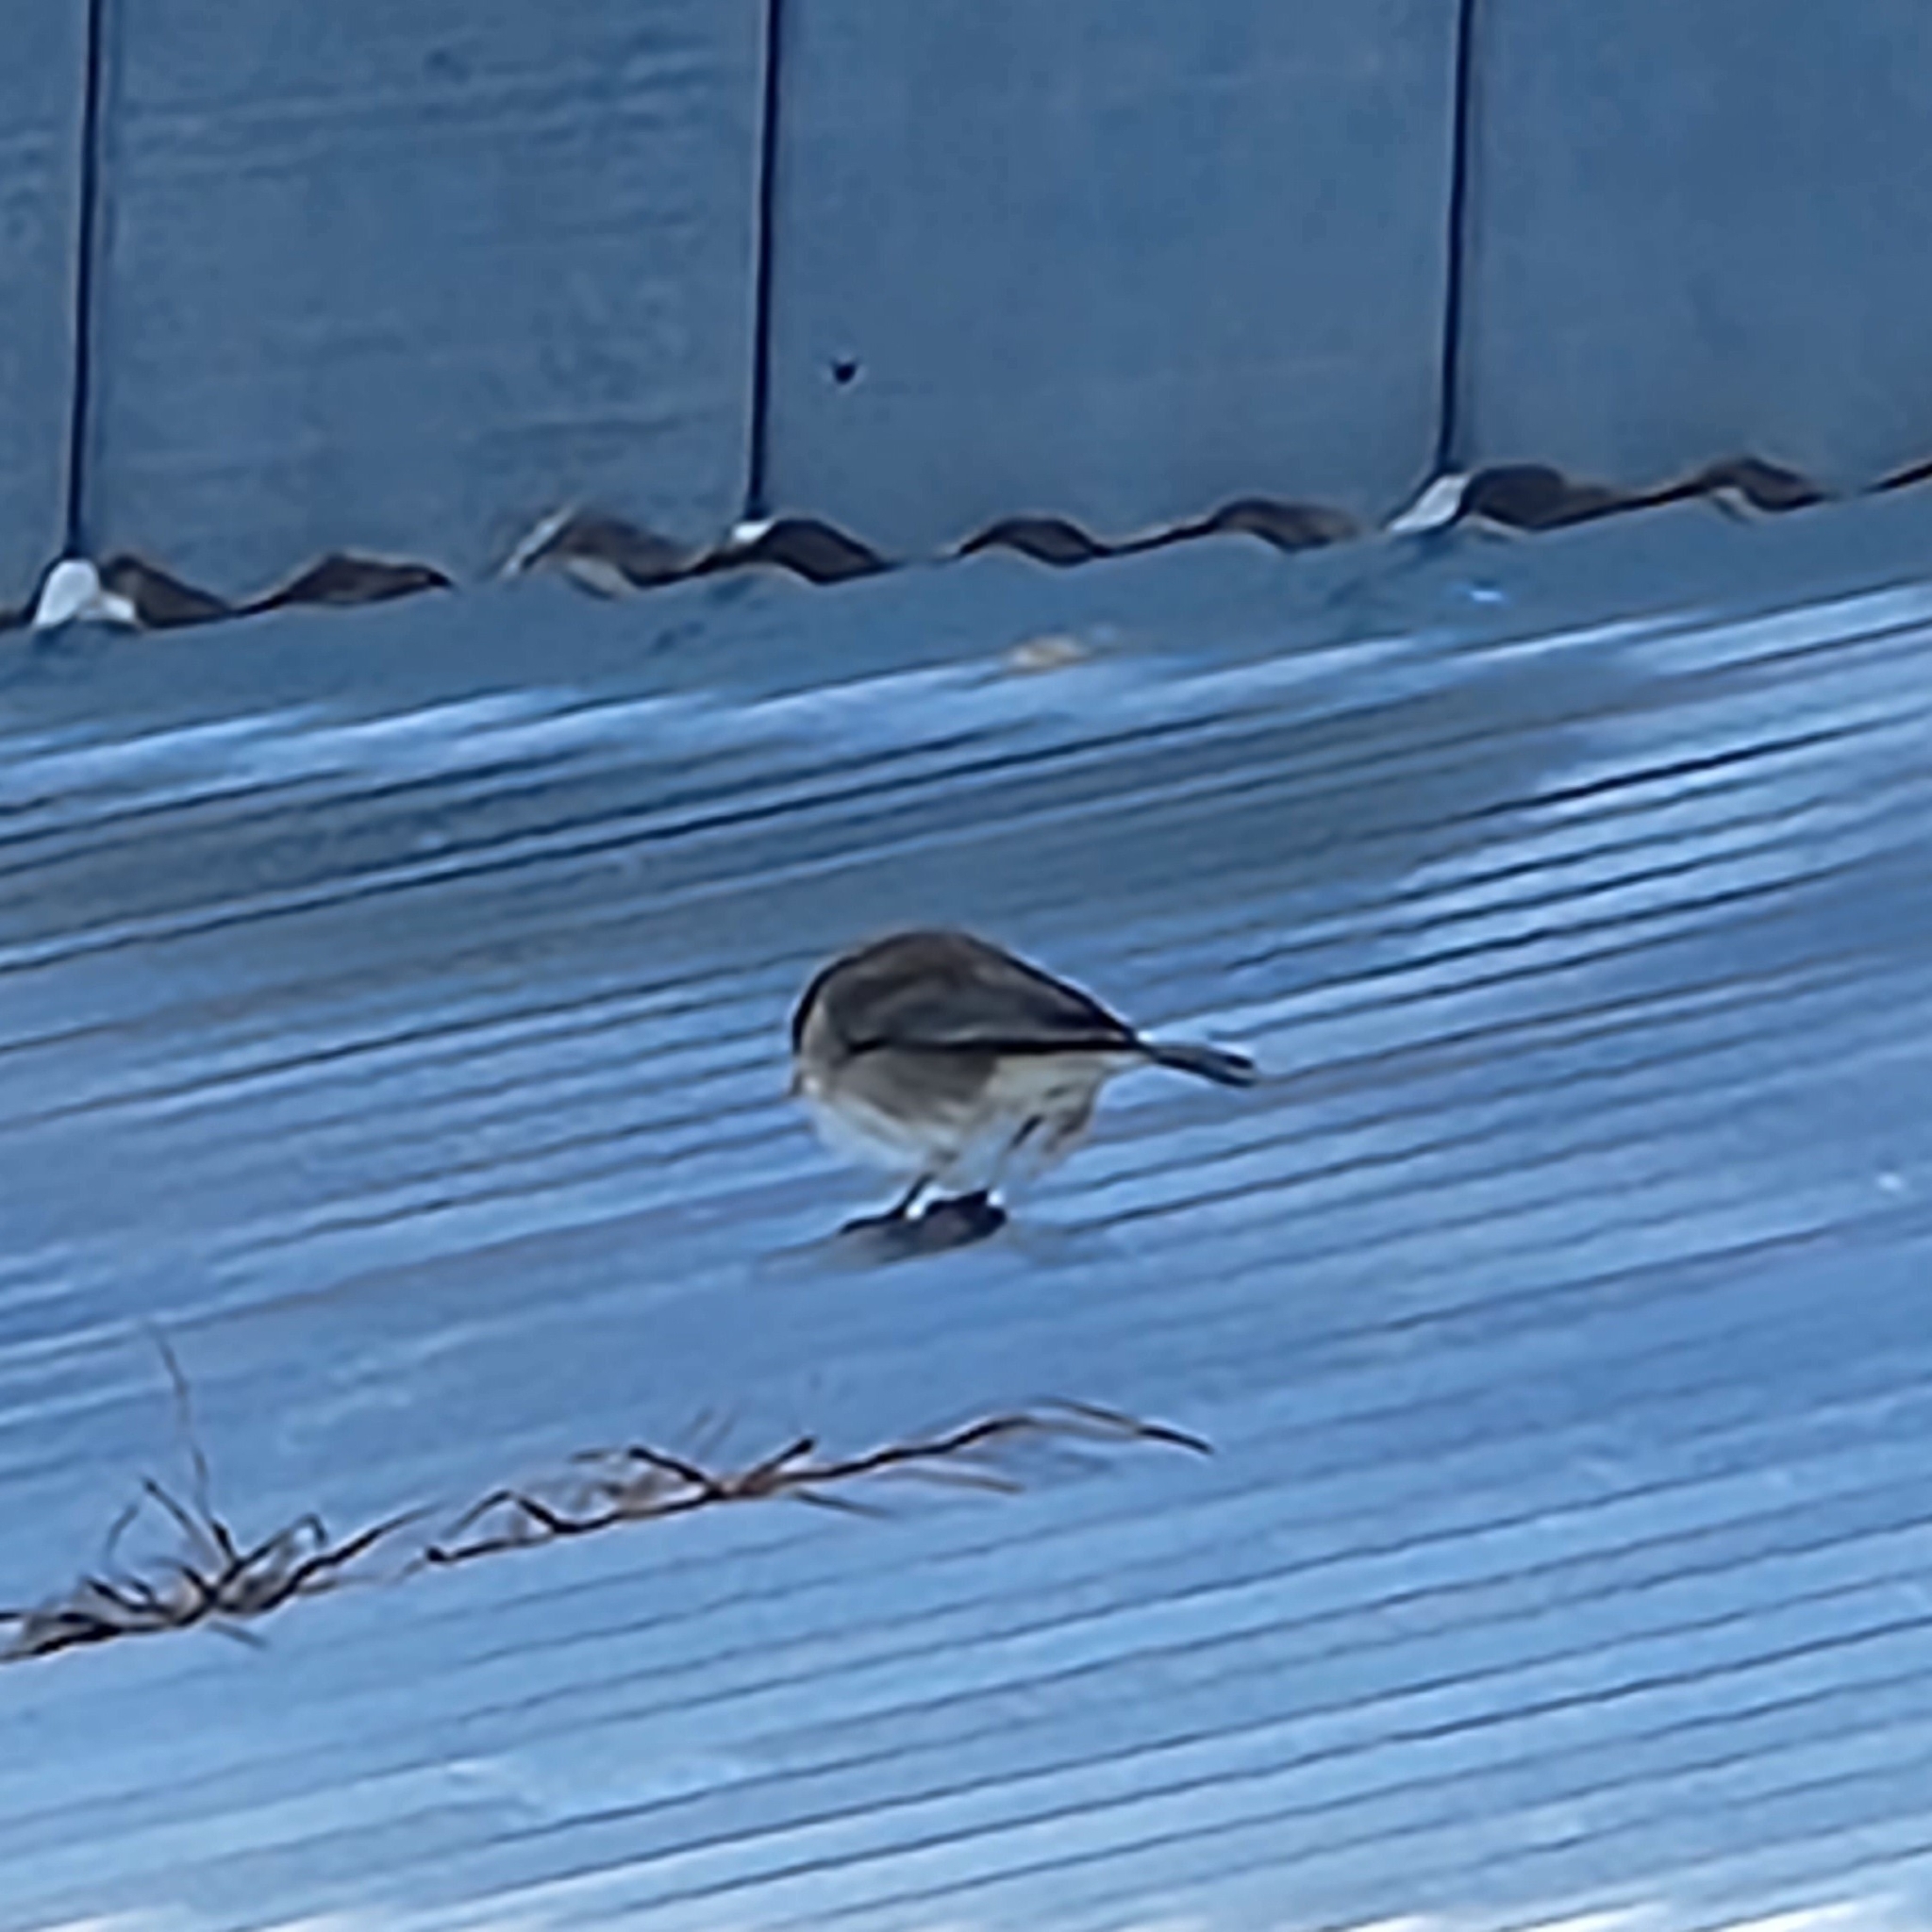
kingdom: Animalia
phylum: Chordata
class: Aves
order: Passeriformes
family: Passerellidae
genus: Junco
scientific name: Junco hyemalis
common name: Dark-eyed junco
